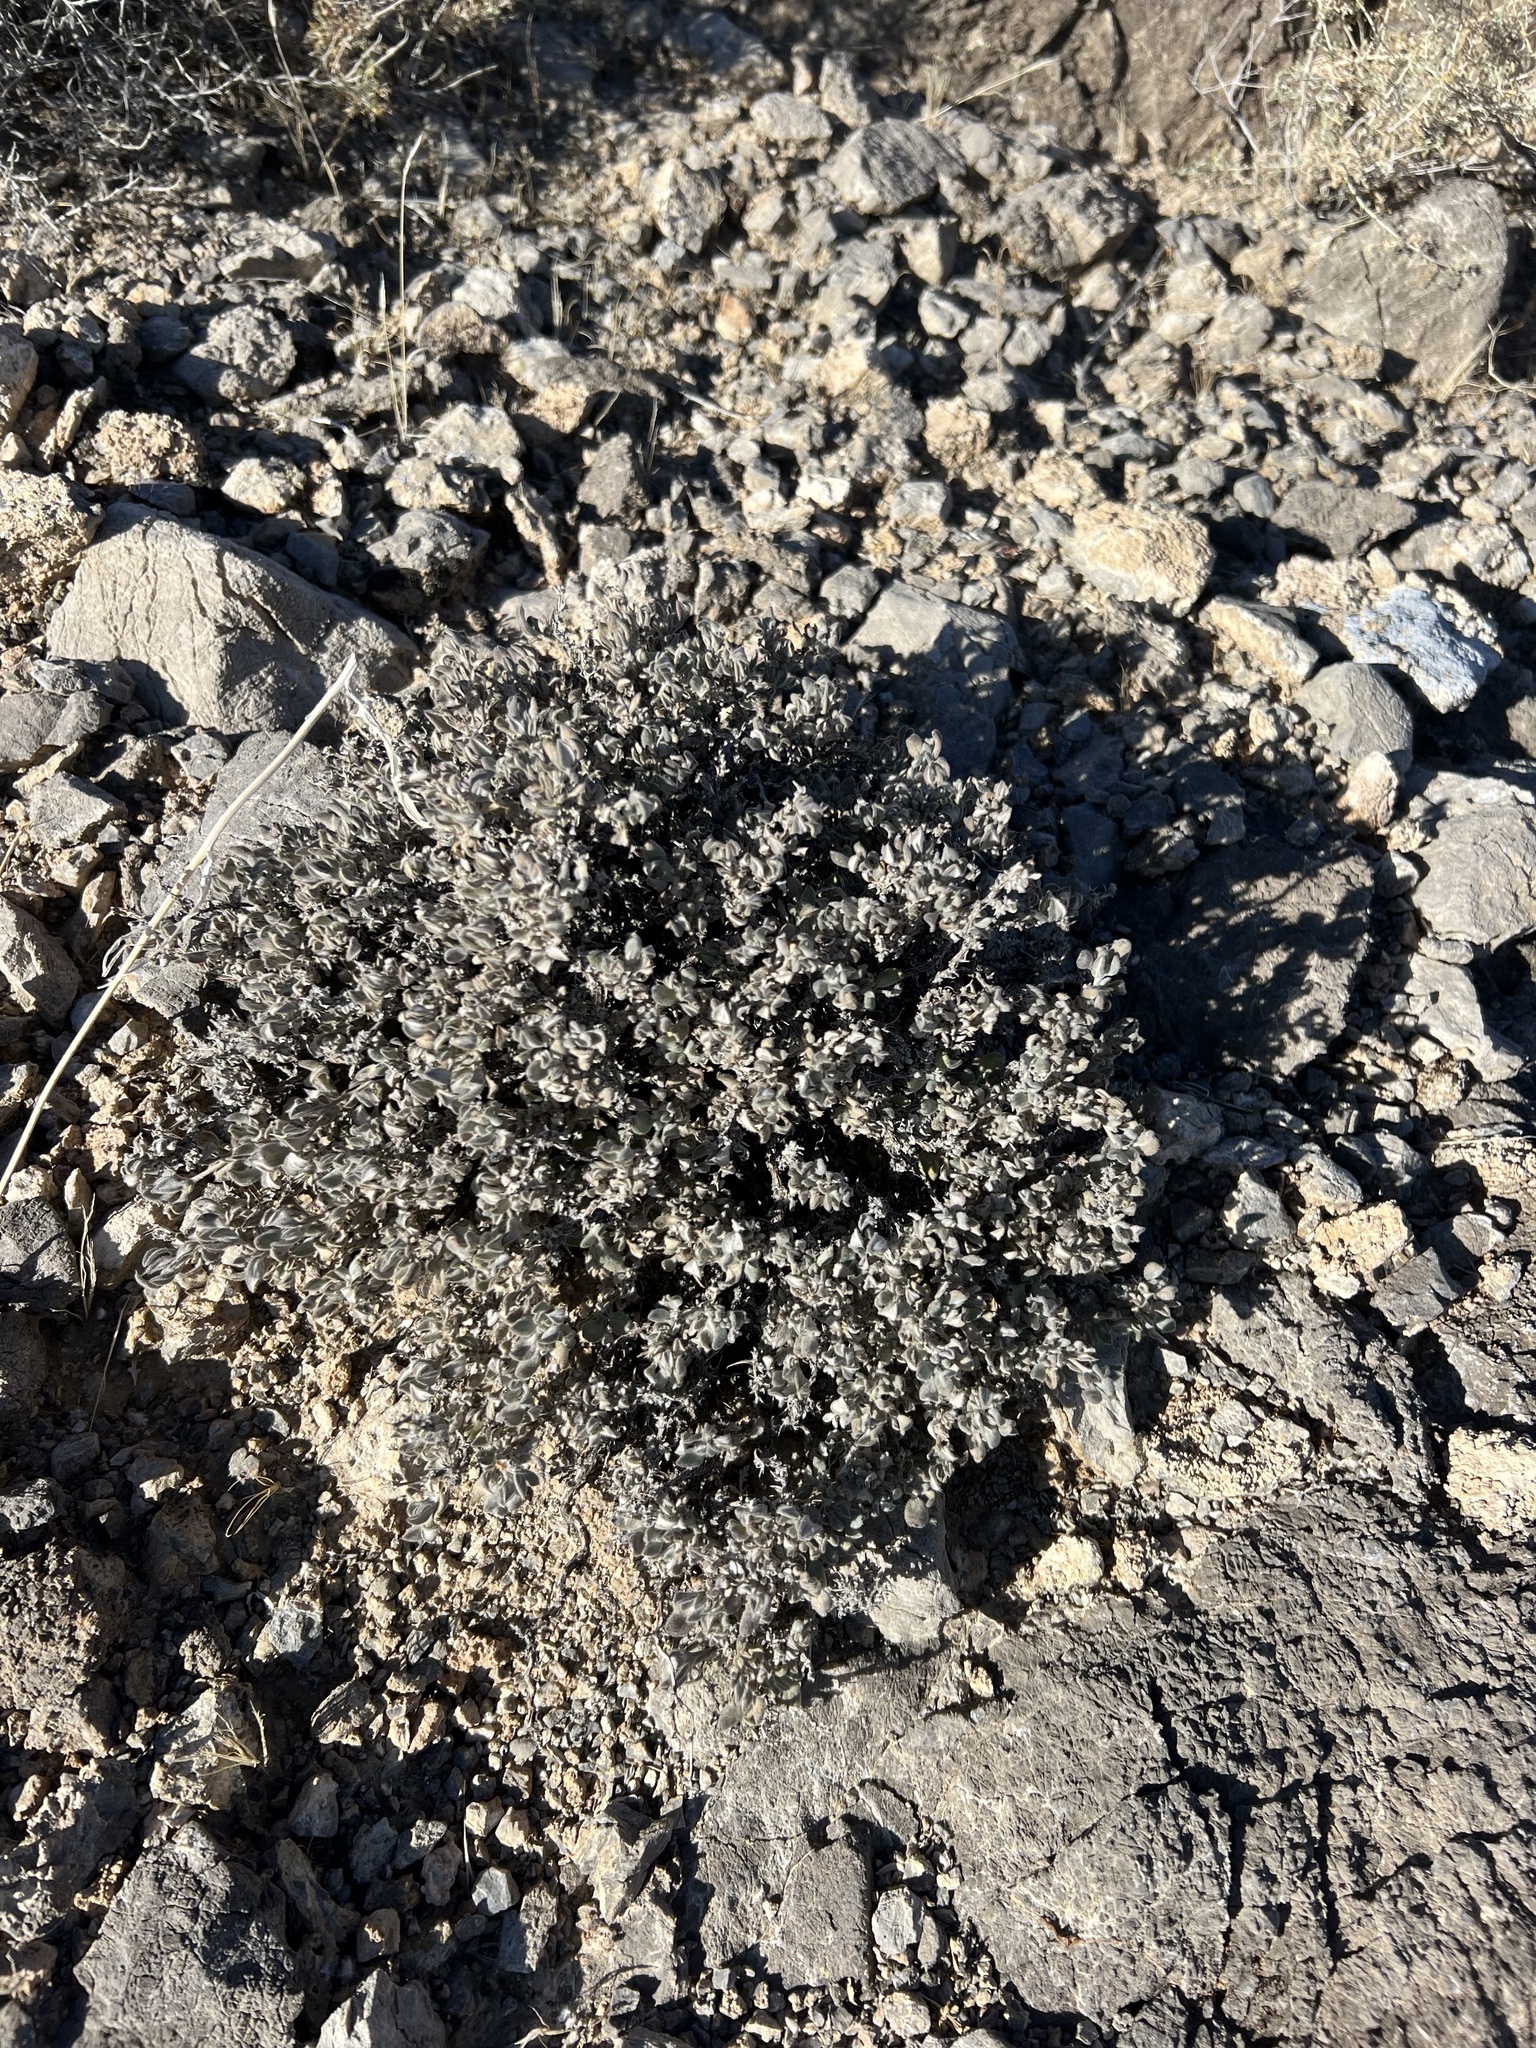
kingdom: Plantae
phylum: Tracheophyta
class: Magnoliopsida
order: Boraginales
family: Ehretiaceae
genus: Tiquilia
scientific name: Tiquilia canescens
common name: Hairy tiquilia
